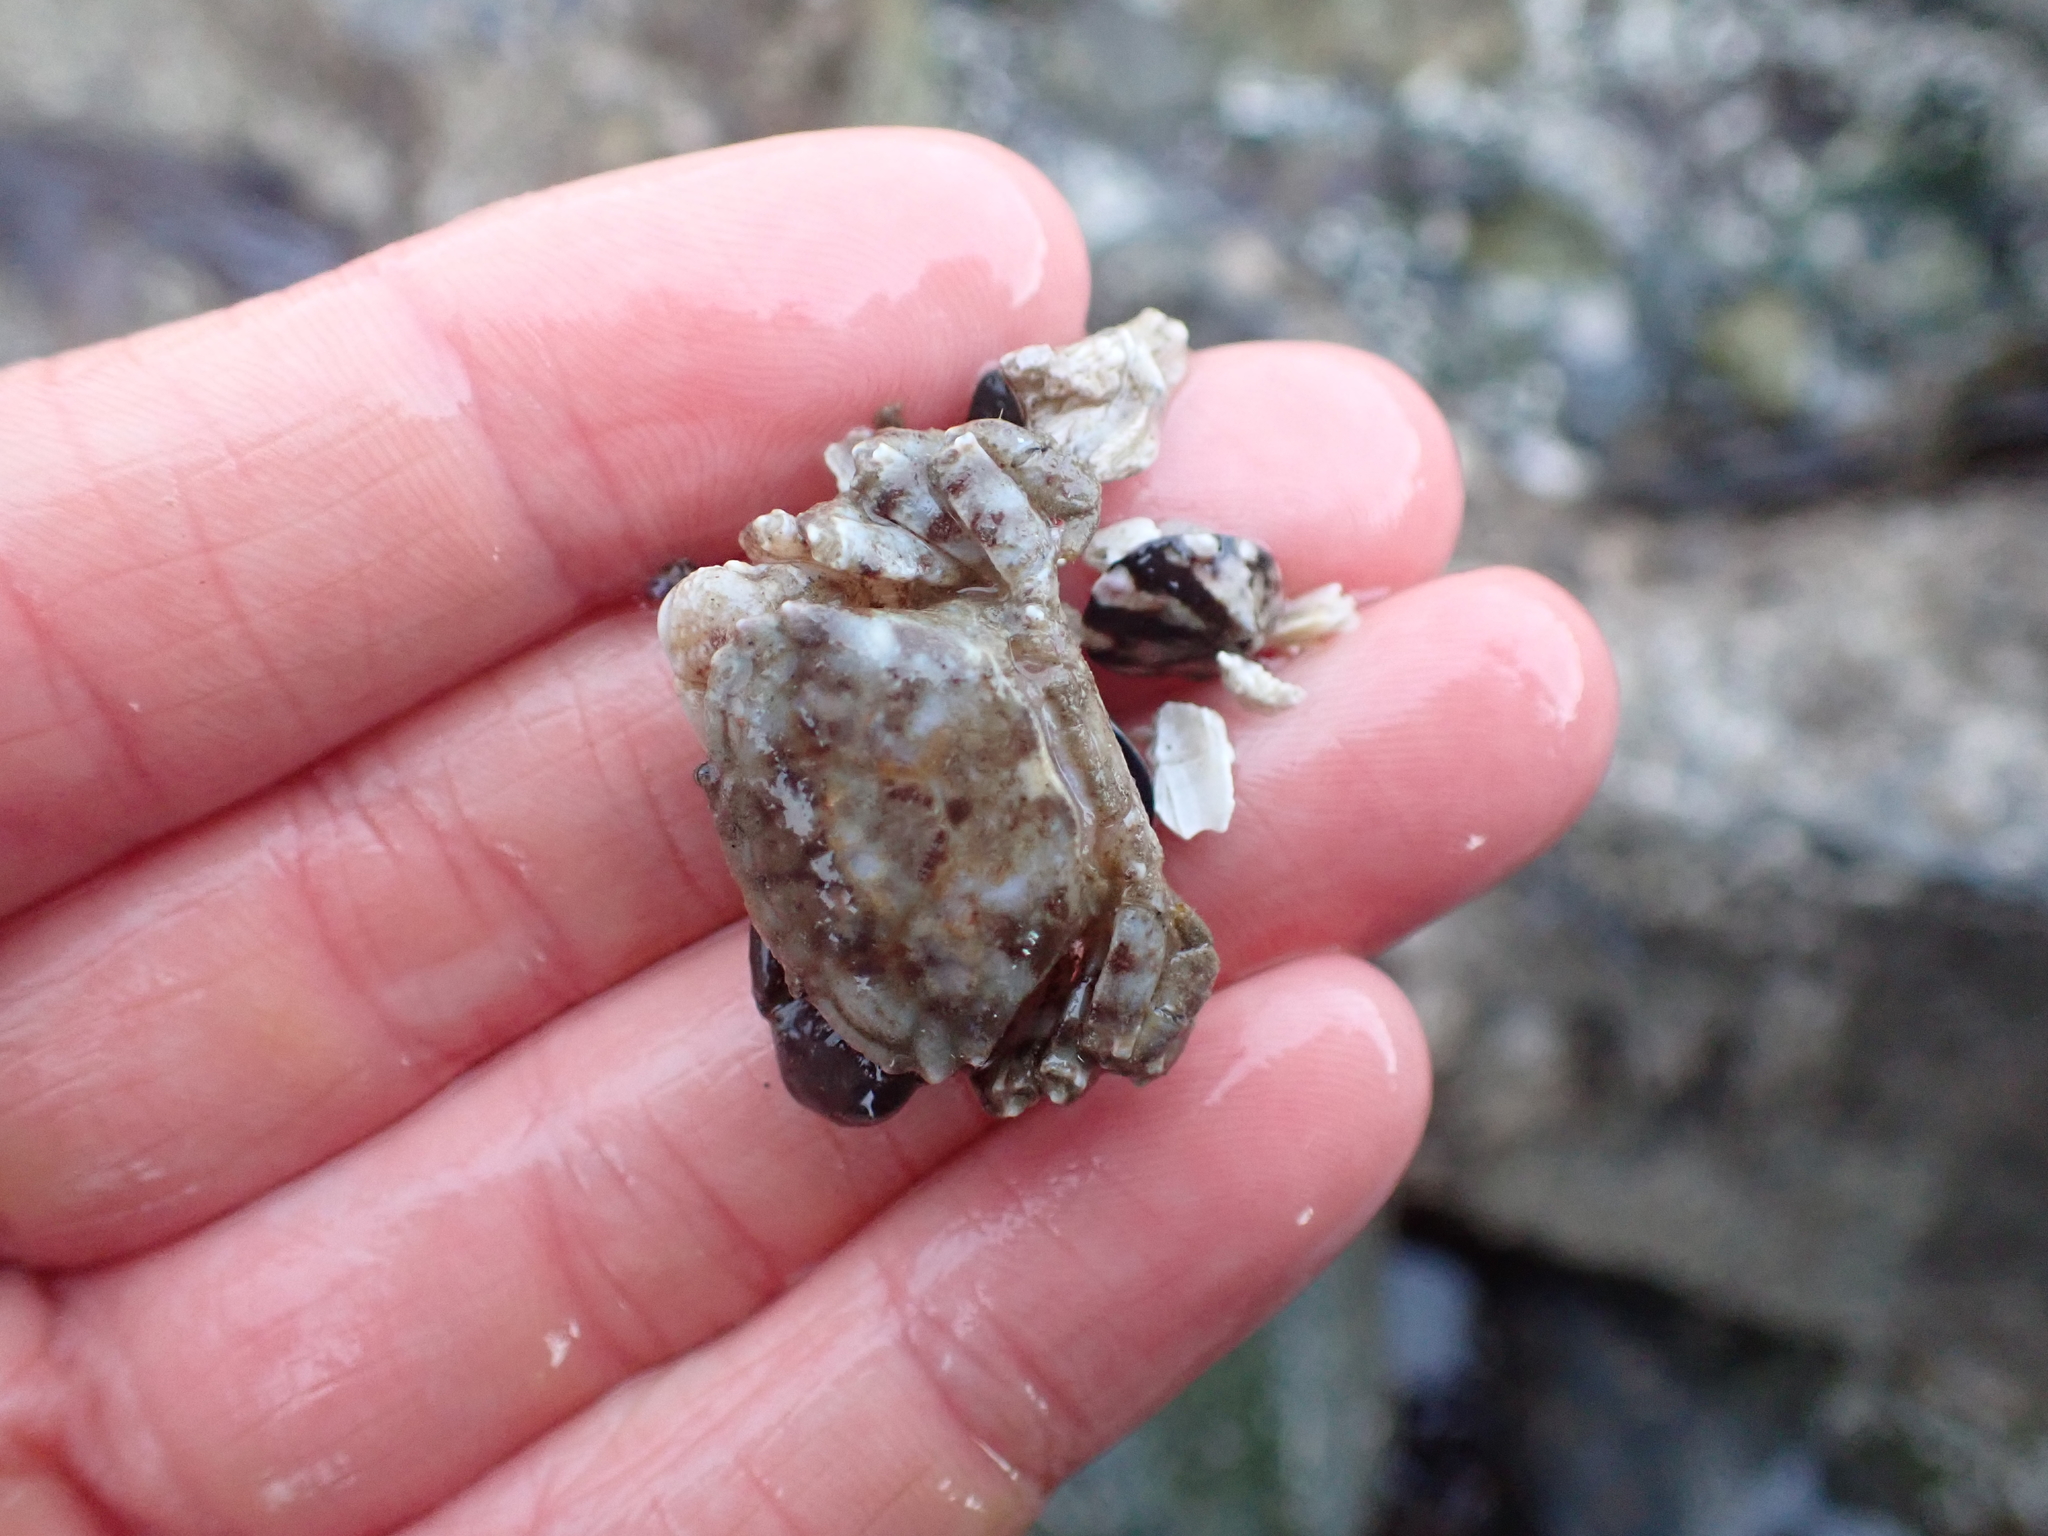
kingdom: Animalia
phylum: Arthropoda
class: Malacostraca
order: Decapoda
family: Panopeidae
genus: Lophopanopeus
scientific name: Lophopanopeus bellus
